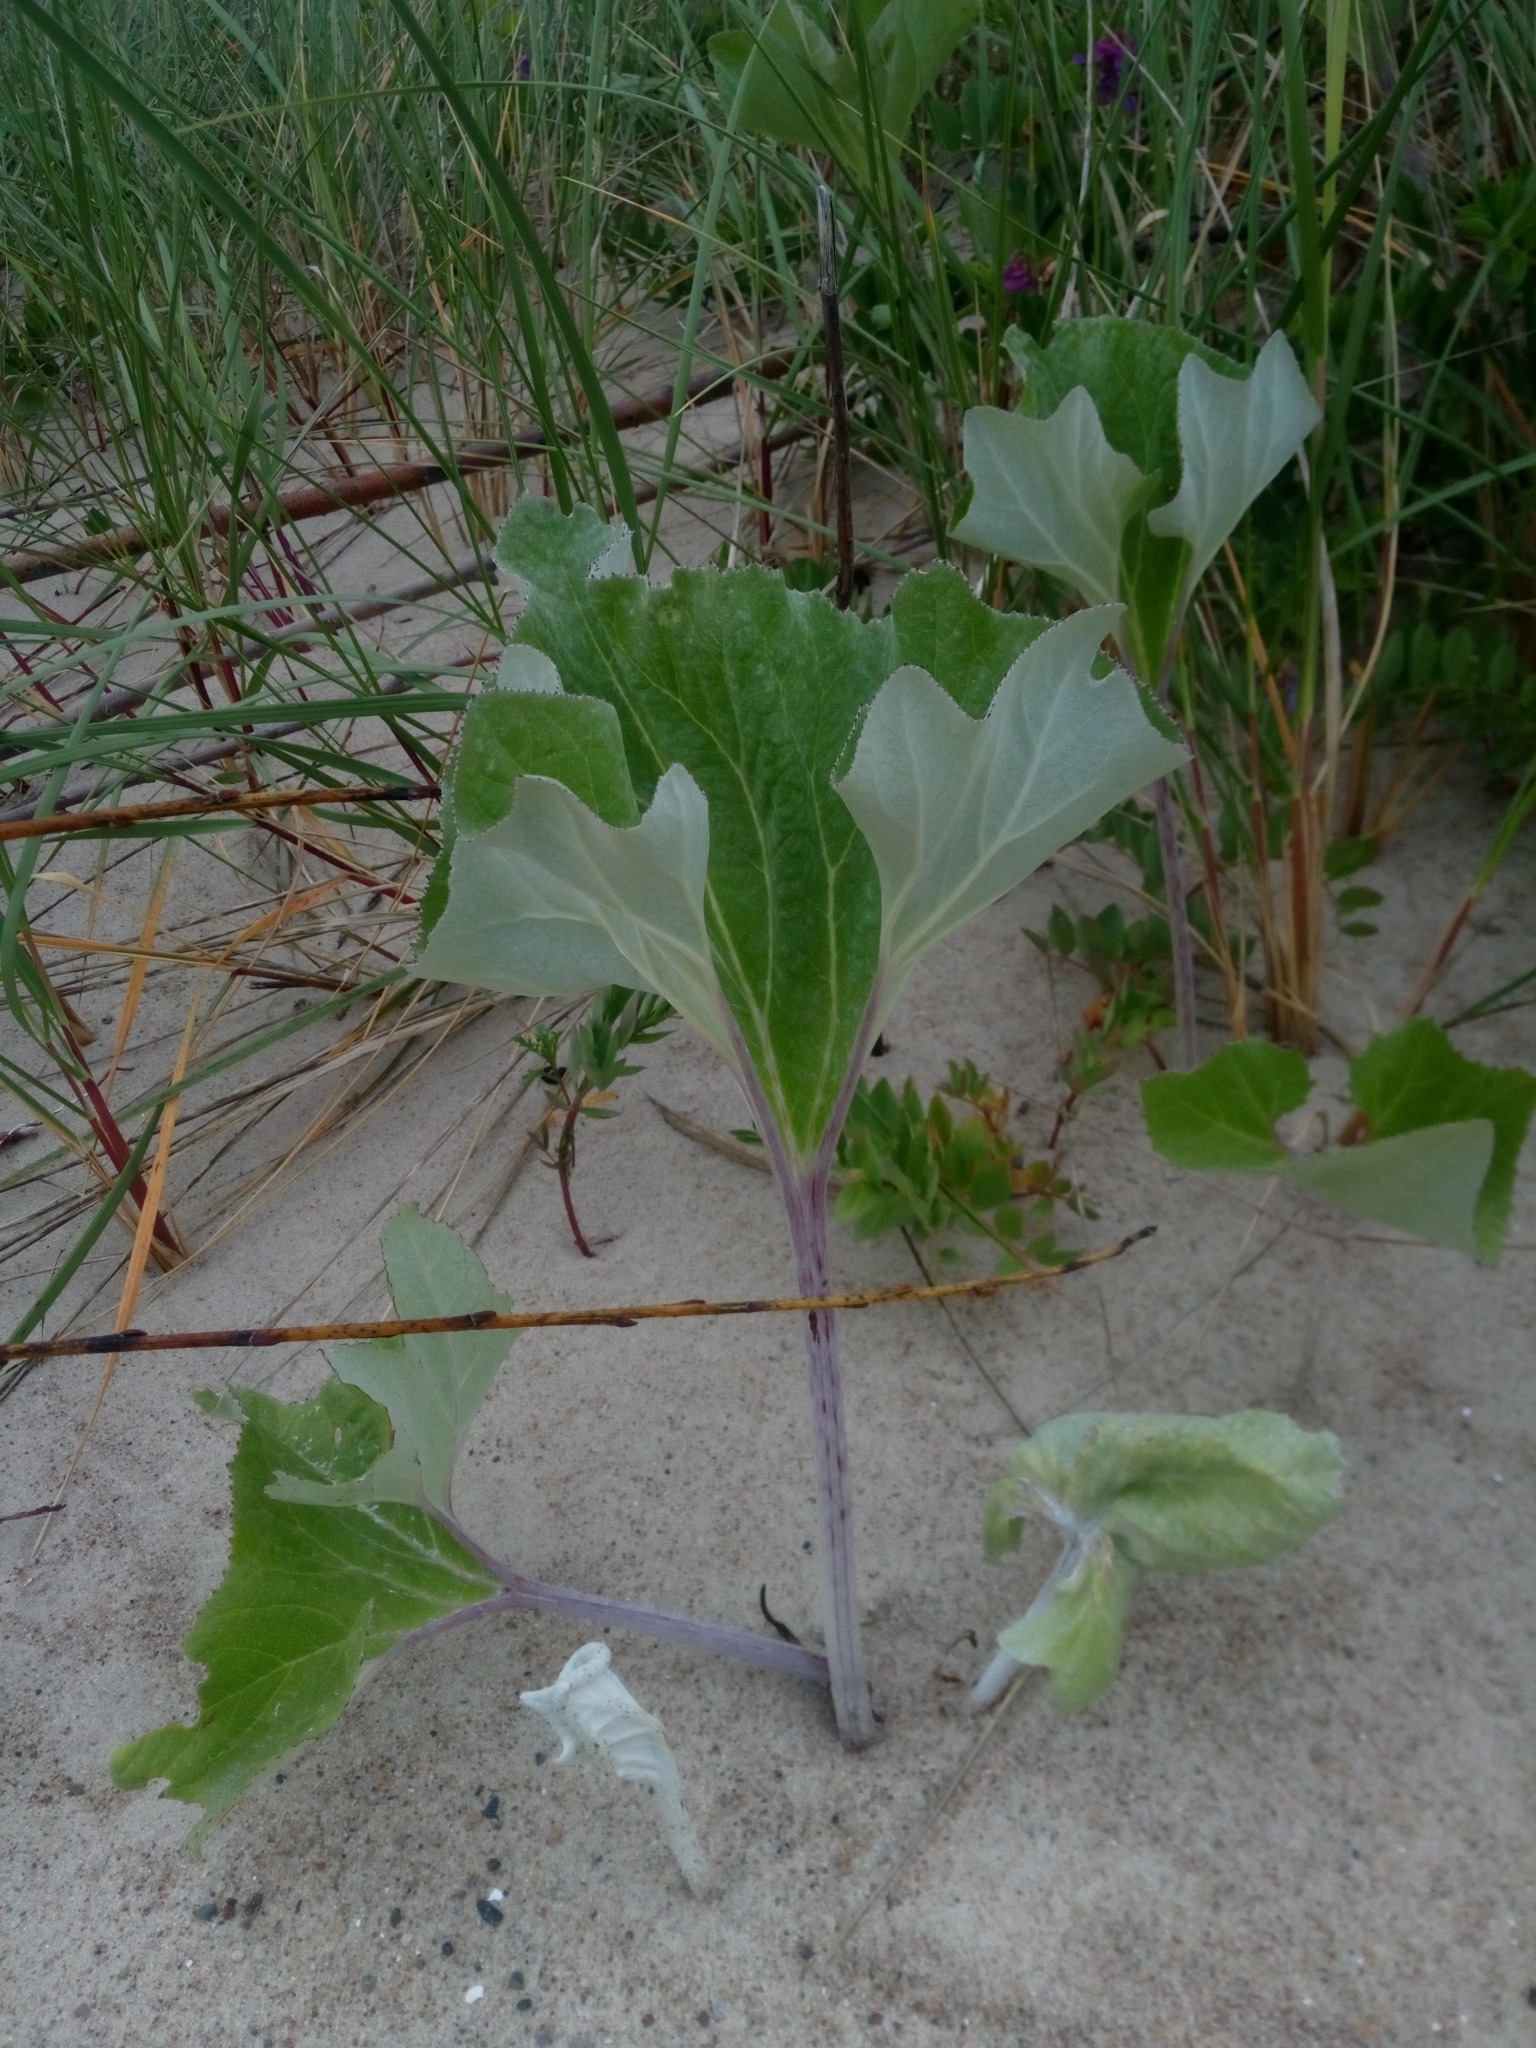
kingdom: Plantae
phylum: Tracheophyta
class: Magnoliopsida
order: Asterales
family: Asteraceae
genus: Petasites
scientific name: Petasites spurius
